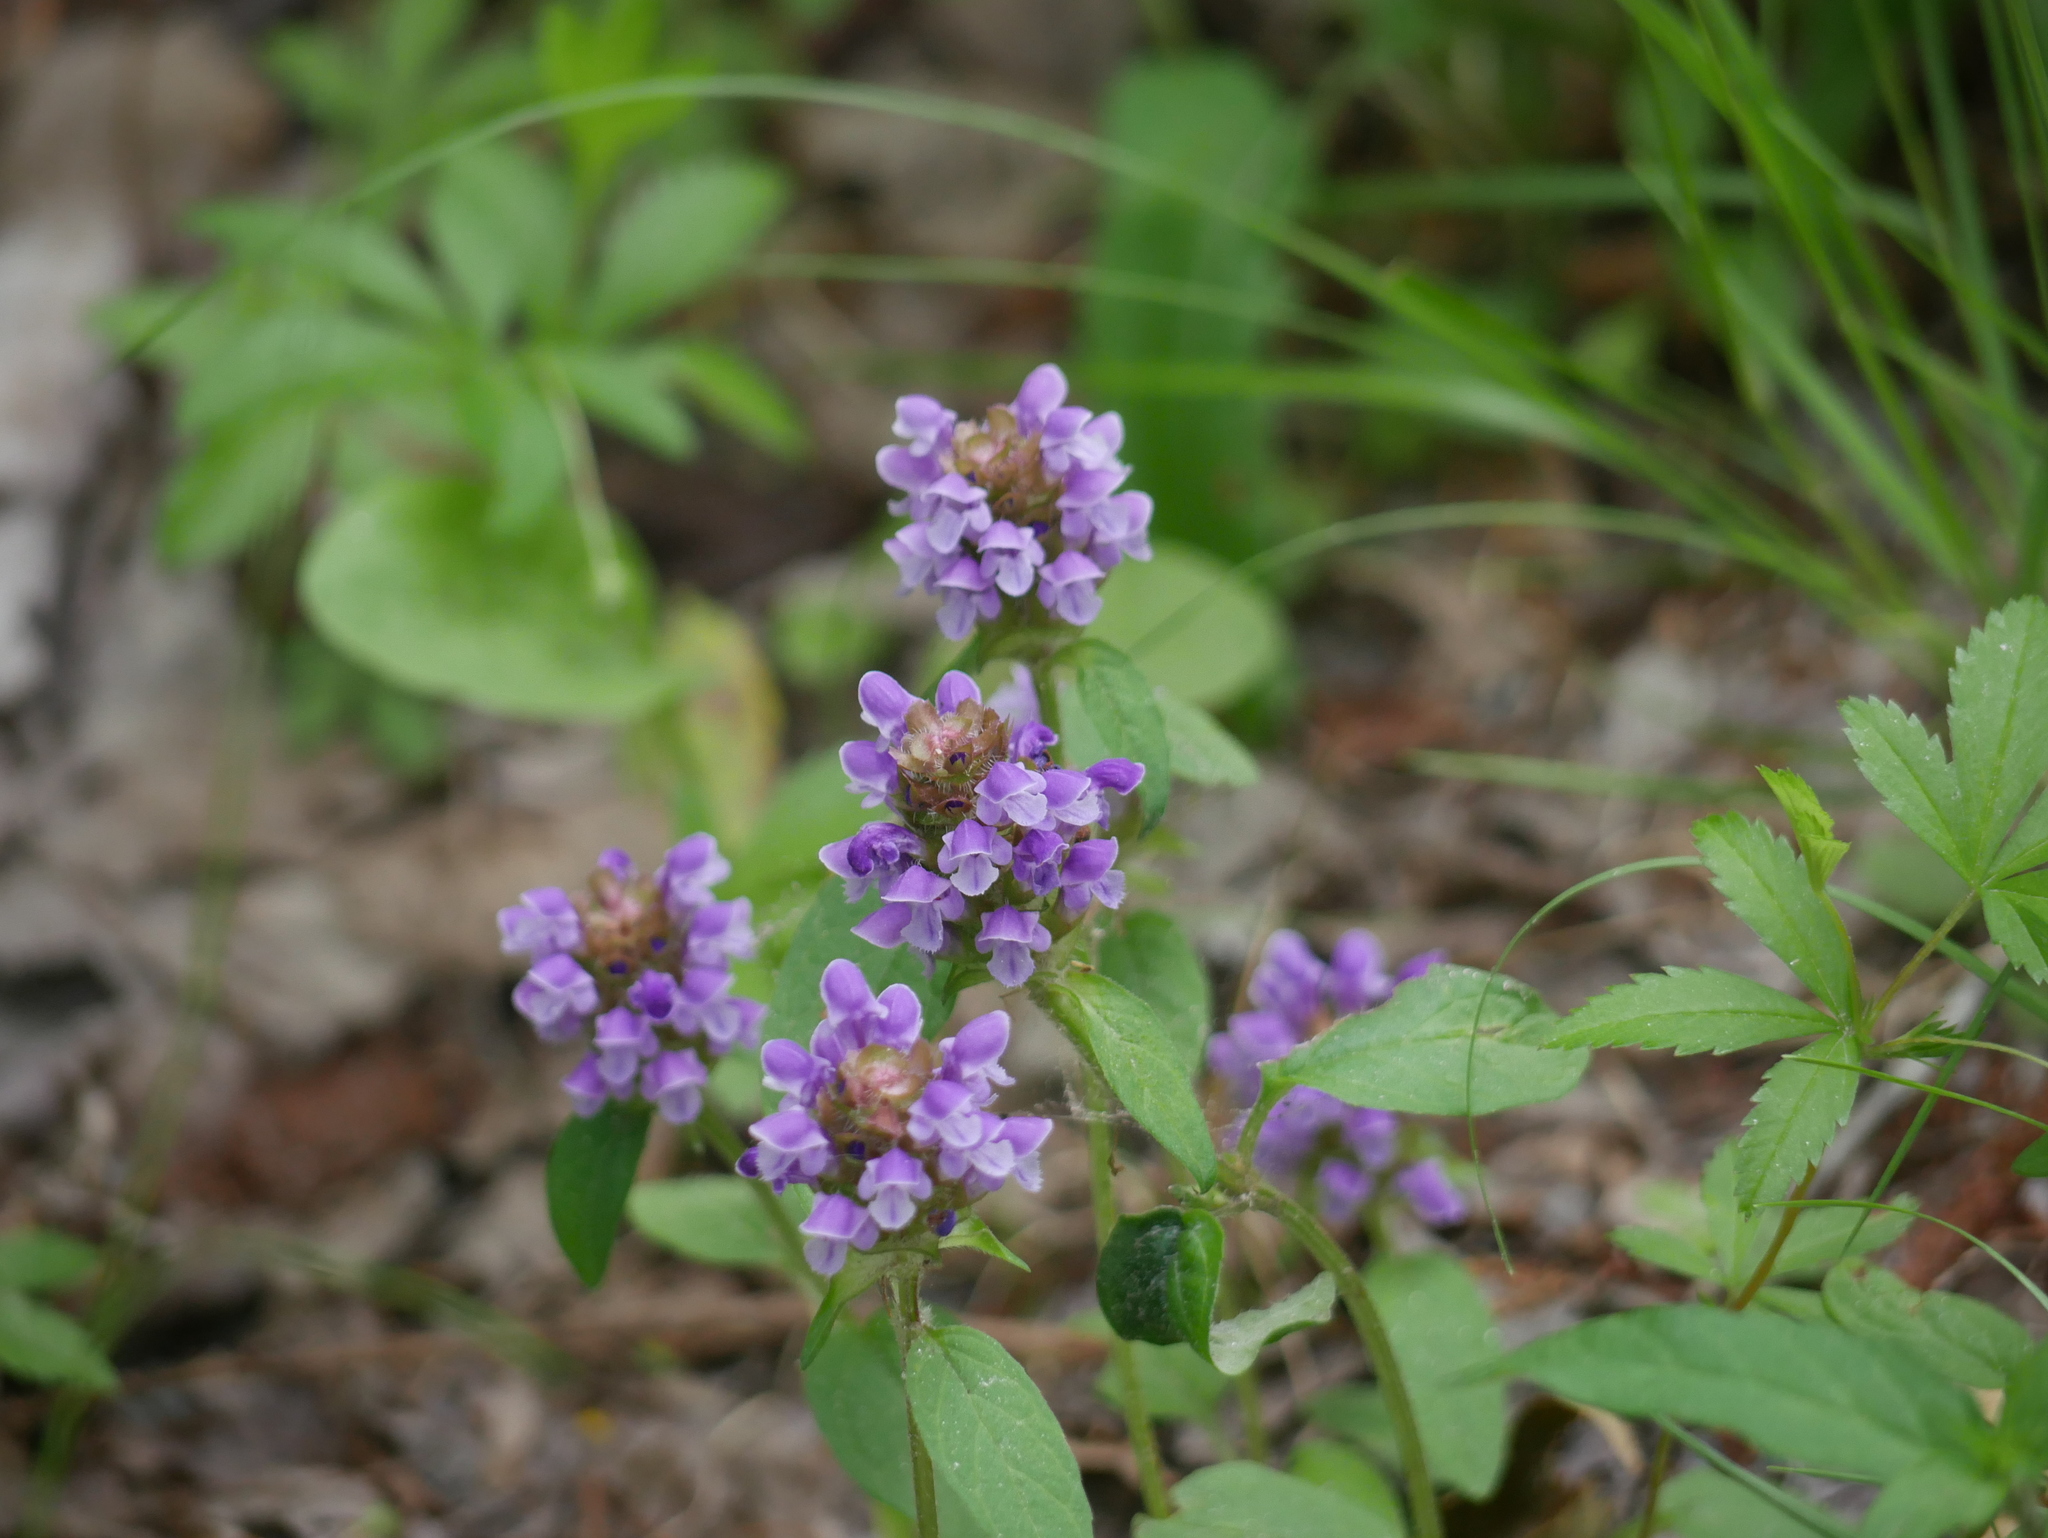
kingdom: Plantae
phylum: Tracheophyta
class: Magnoliopsida
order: Lamiales
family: Lamiaceae
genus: Prunella
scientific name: Prunella vulgaris
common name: Heal-all
